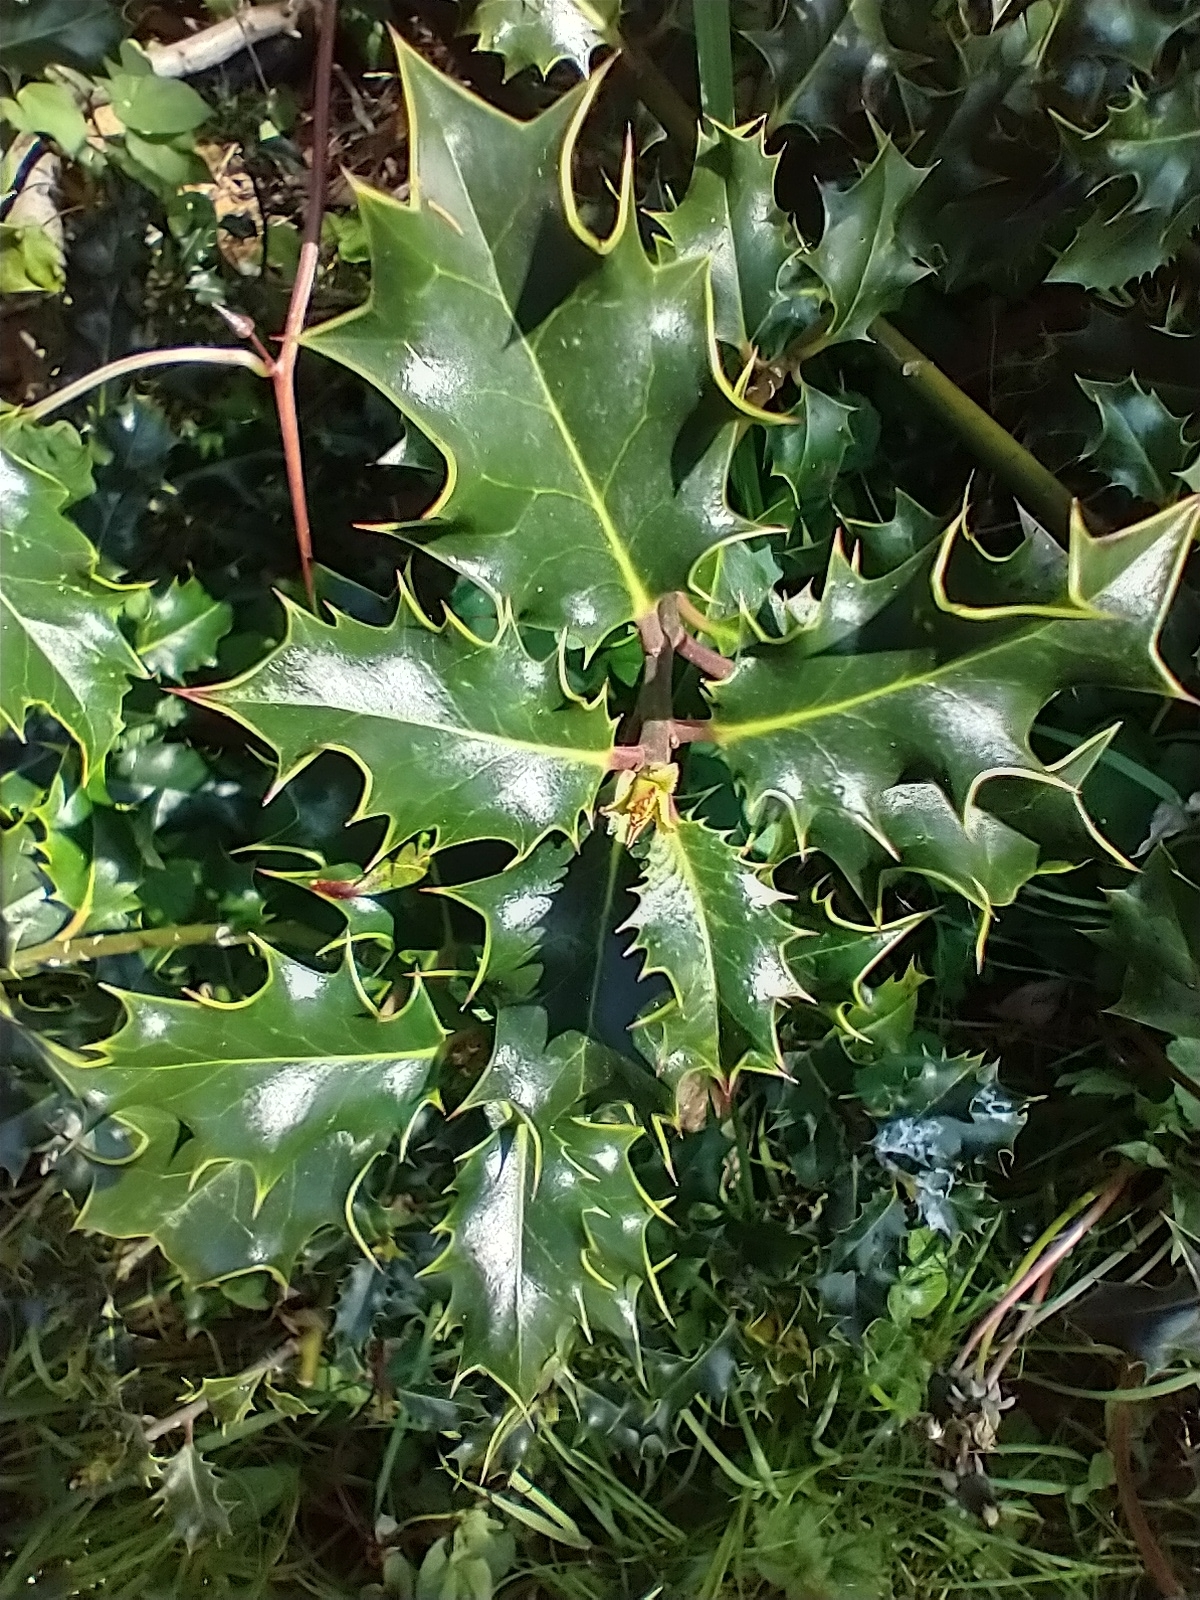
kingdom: Plantae
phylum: Tracheophyta
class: Magnoliopsida
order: Aquifoliales
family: Aquifoliaceae
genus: Ilex
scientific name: Ilex aquifolium
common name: English holly
